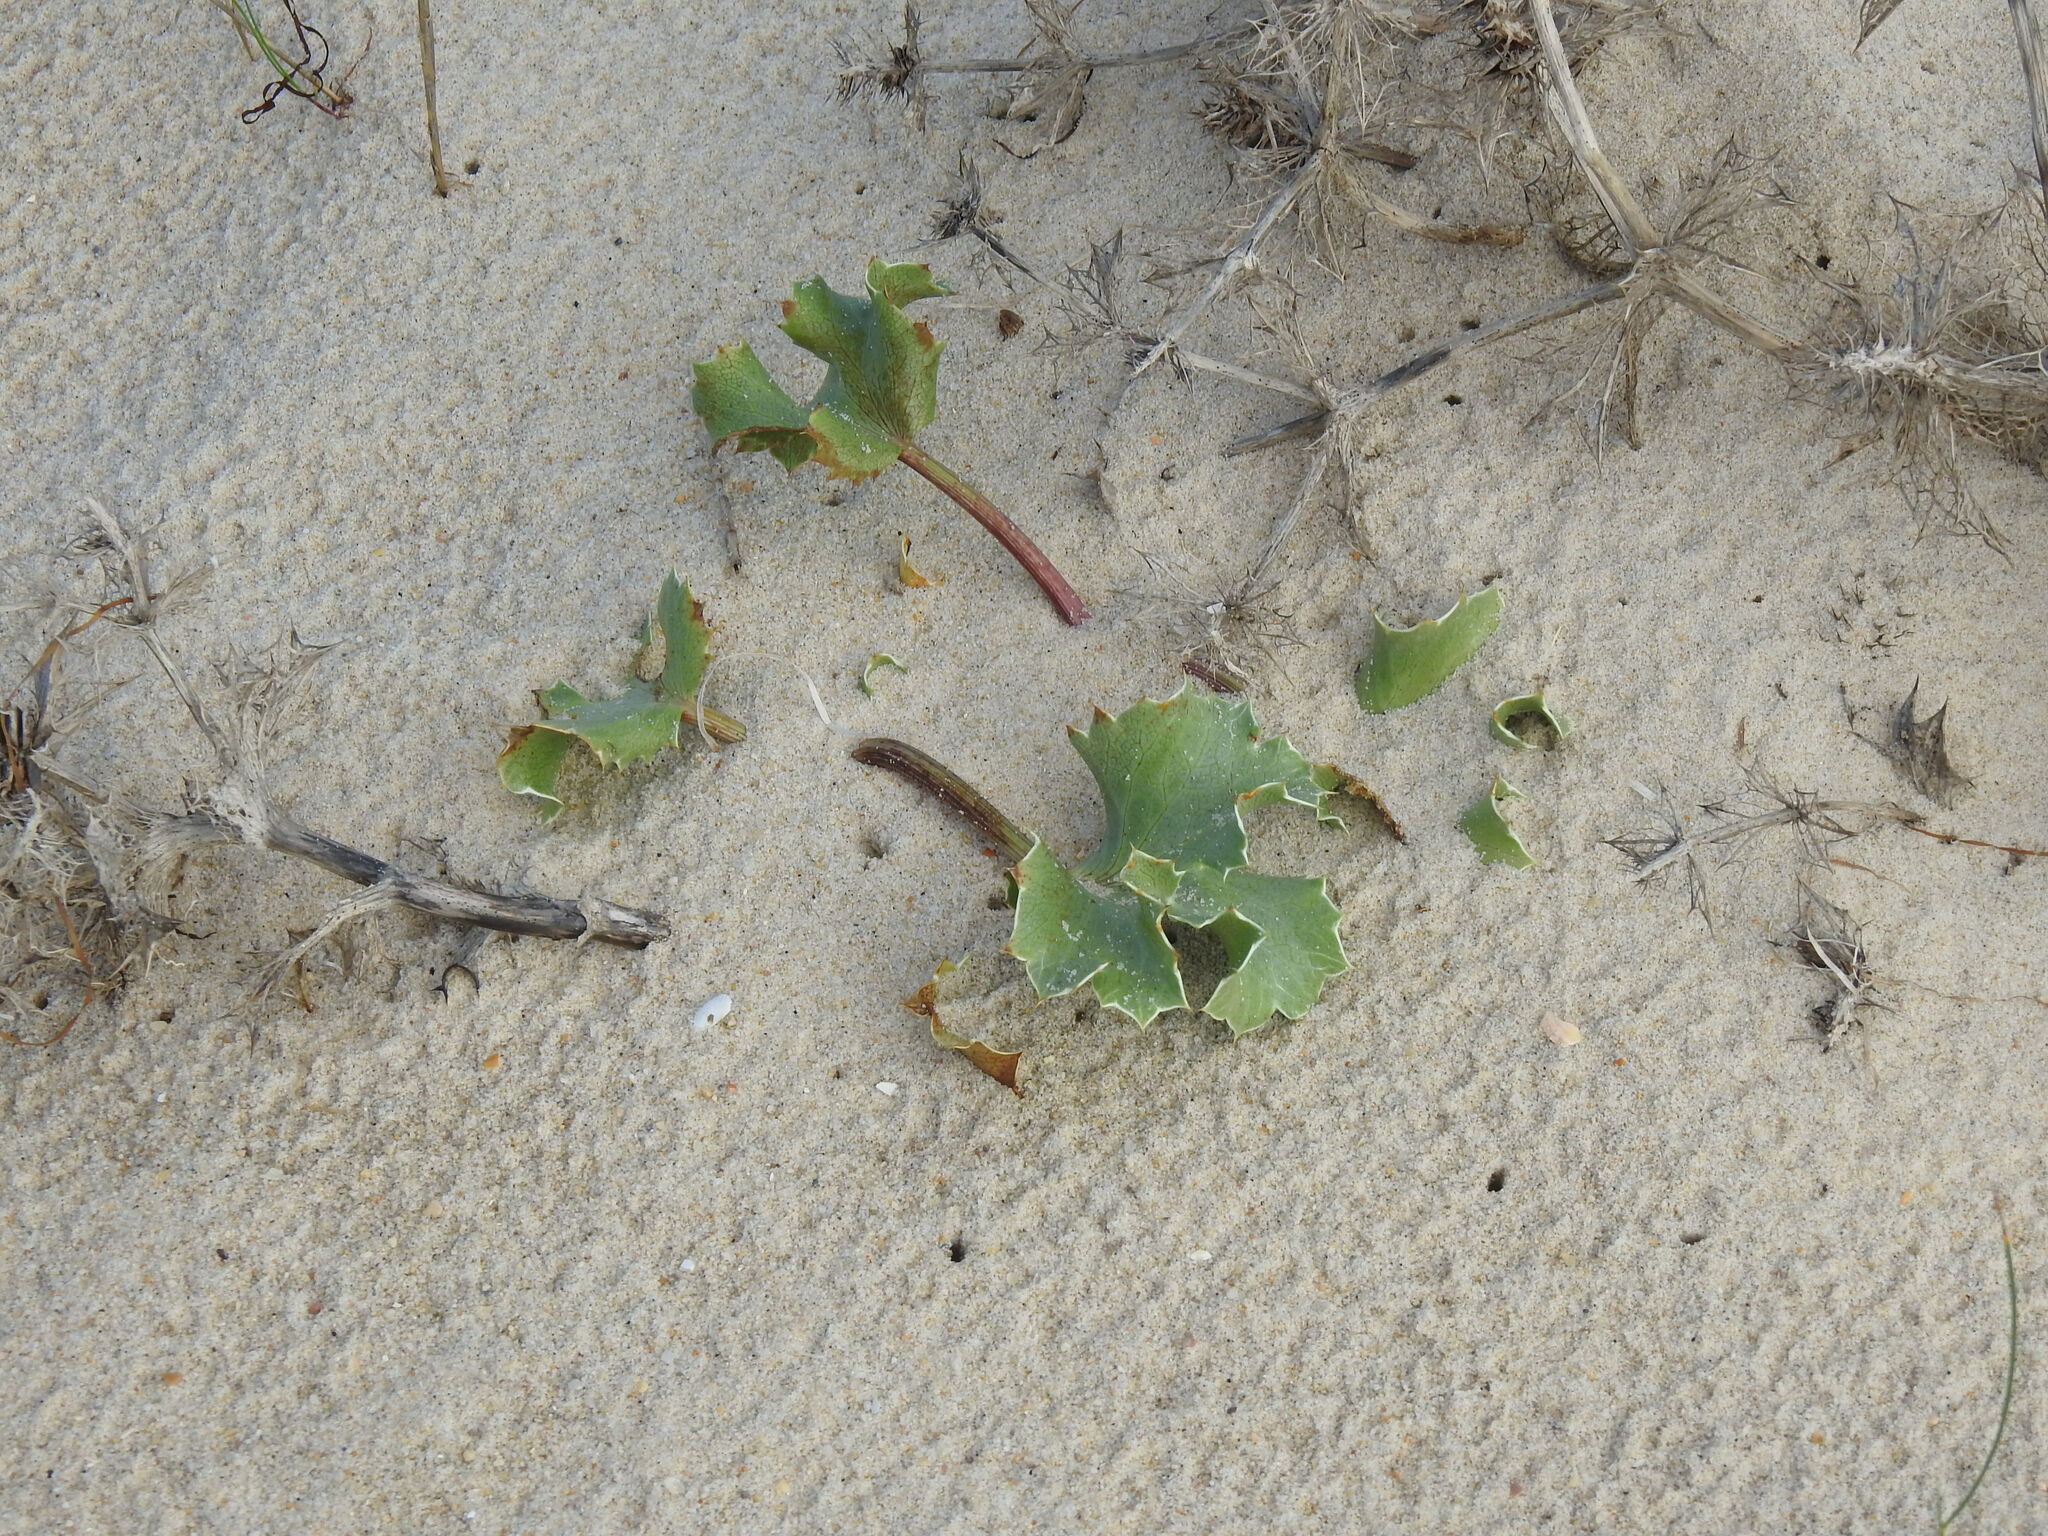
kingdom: Plantae
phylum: Tracheophyta
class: Magnoliopsida
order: Apiales
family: Apiaceae
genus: Eryngium
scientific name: Eryngium maritimum
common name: Sea-holly
